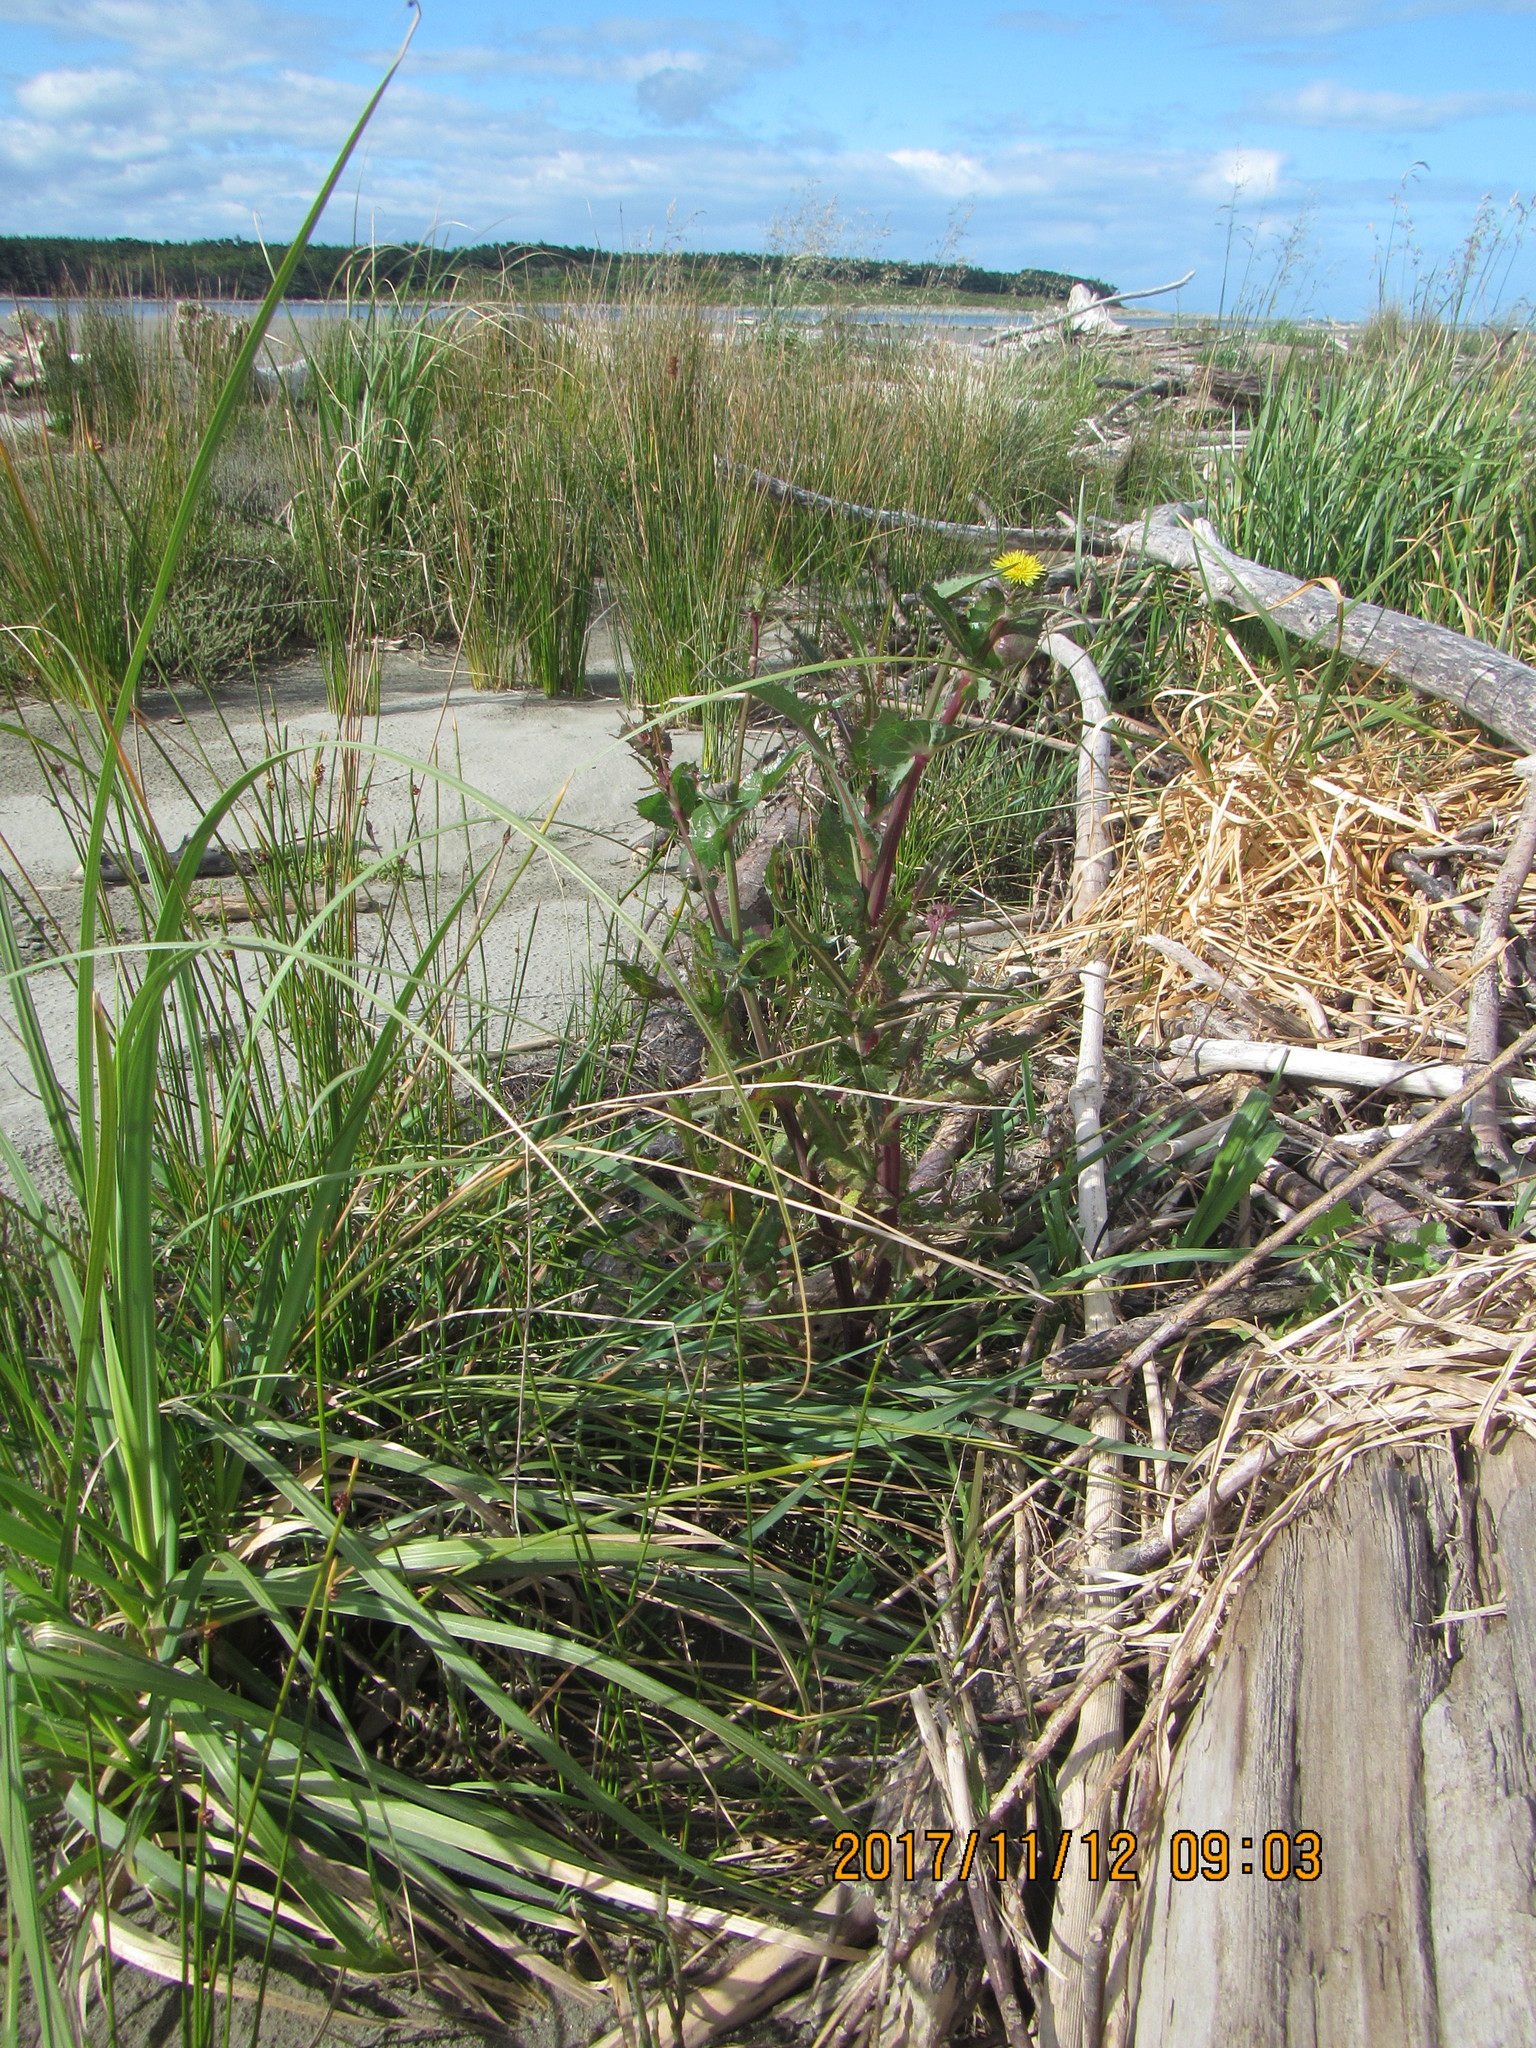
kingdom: Plantae
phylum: Tracheophyta
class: Magnoliopsida
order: Asterales
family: Asteraceae
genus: Sonchus
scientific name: Sonchus oleraceus
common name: Common sowthistle
